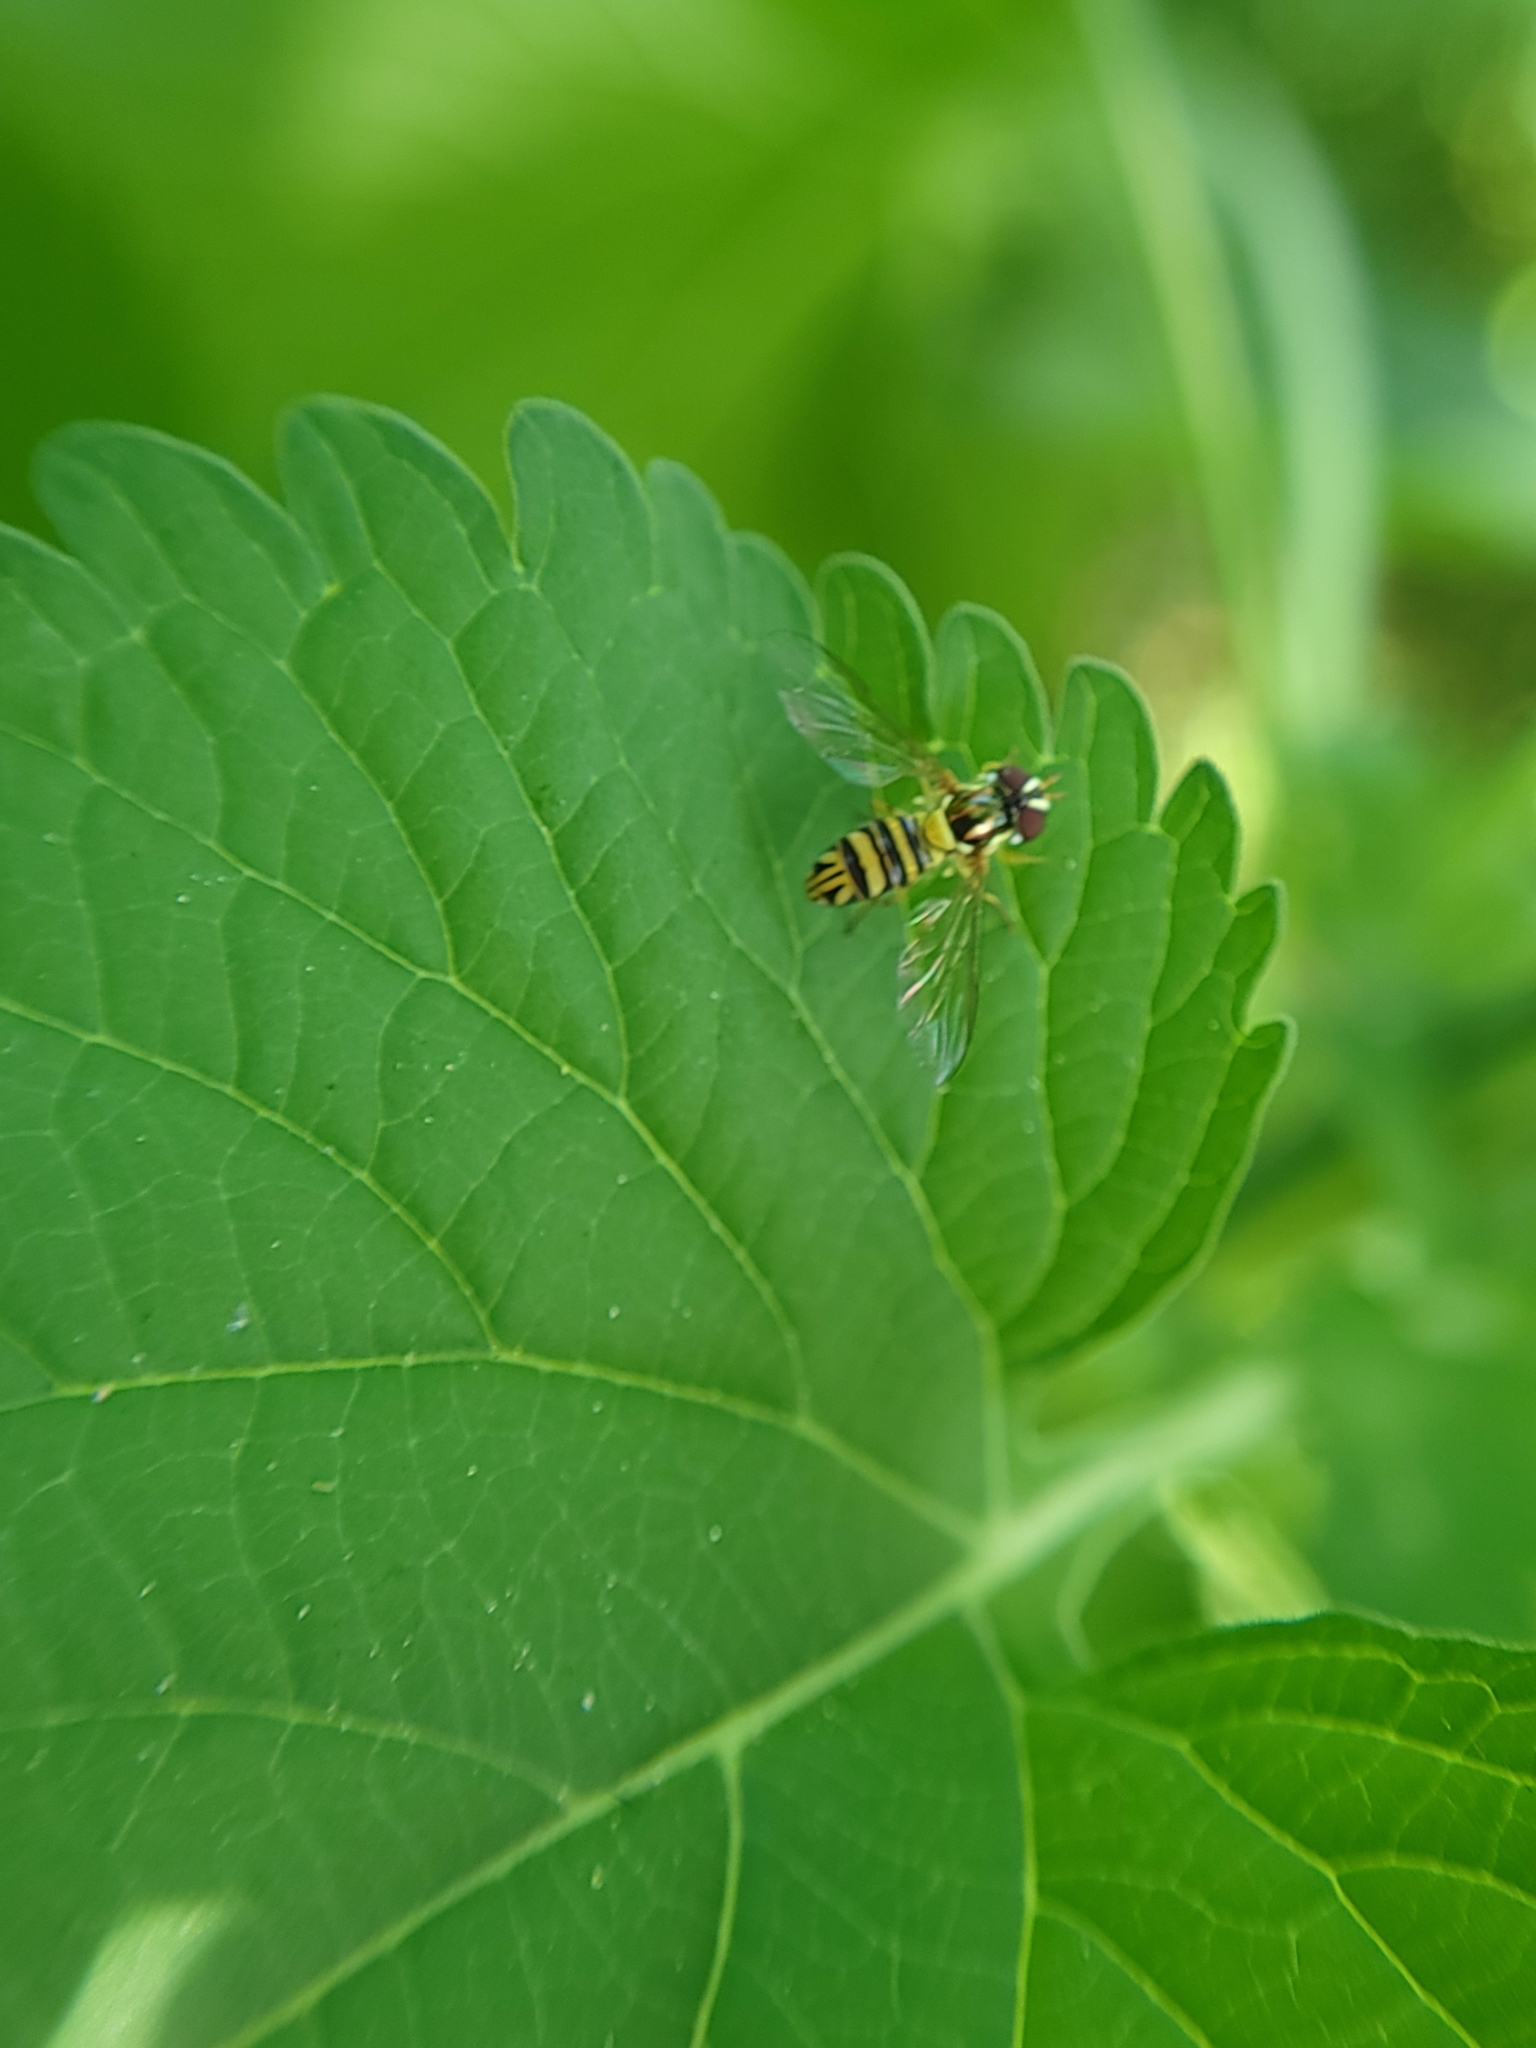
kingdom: Animalia
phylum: Arthropoda
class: Insecta
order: Diptera
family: Syrphidae
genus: Allograpta
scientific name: Allograpta obliqua
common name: Common oblique syrphid
